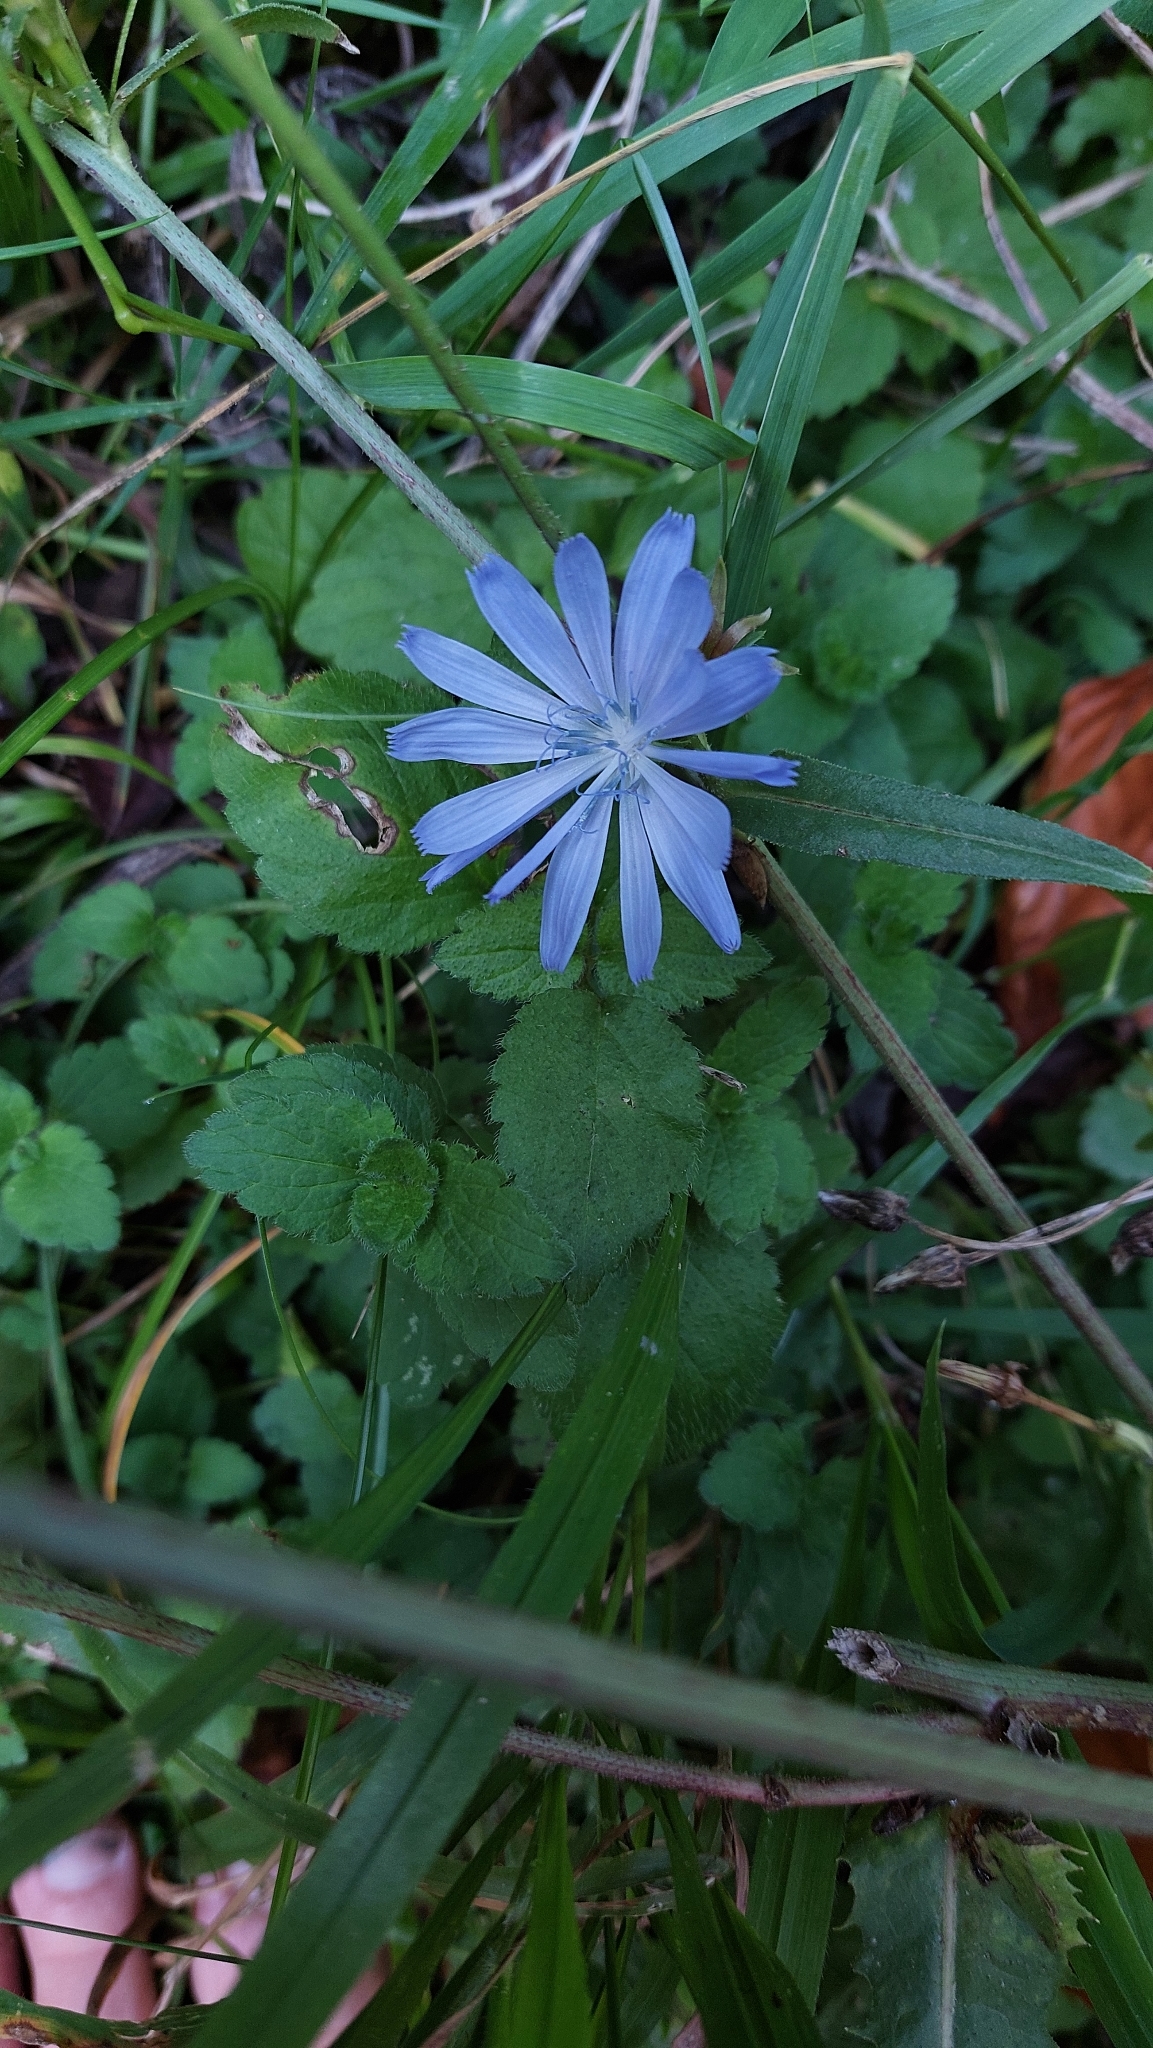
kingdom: Plantae
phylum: Tracheophyta
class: Magnoliopsida
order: Asterales
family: Asteraceae
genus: Cichorium
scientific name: Cichorium intybus
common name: Chicory
